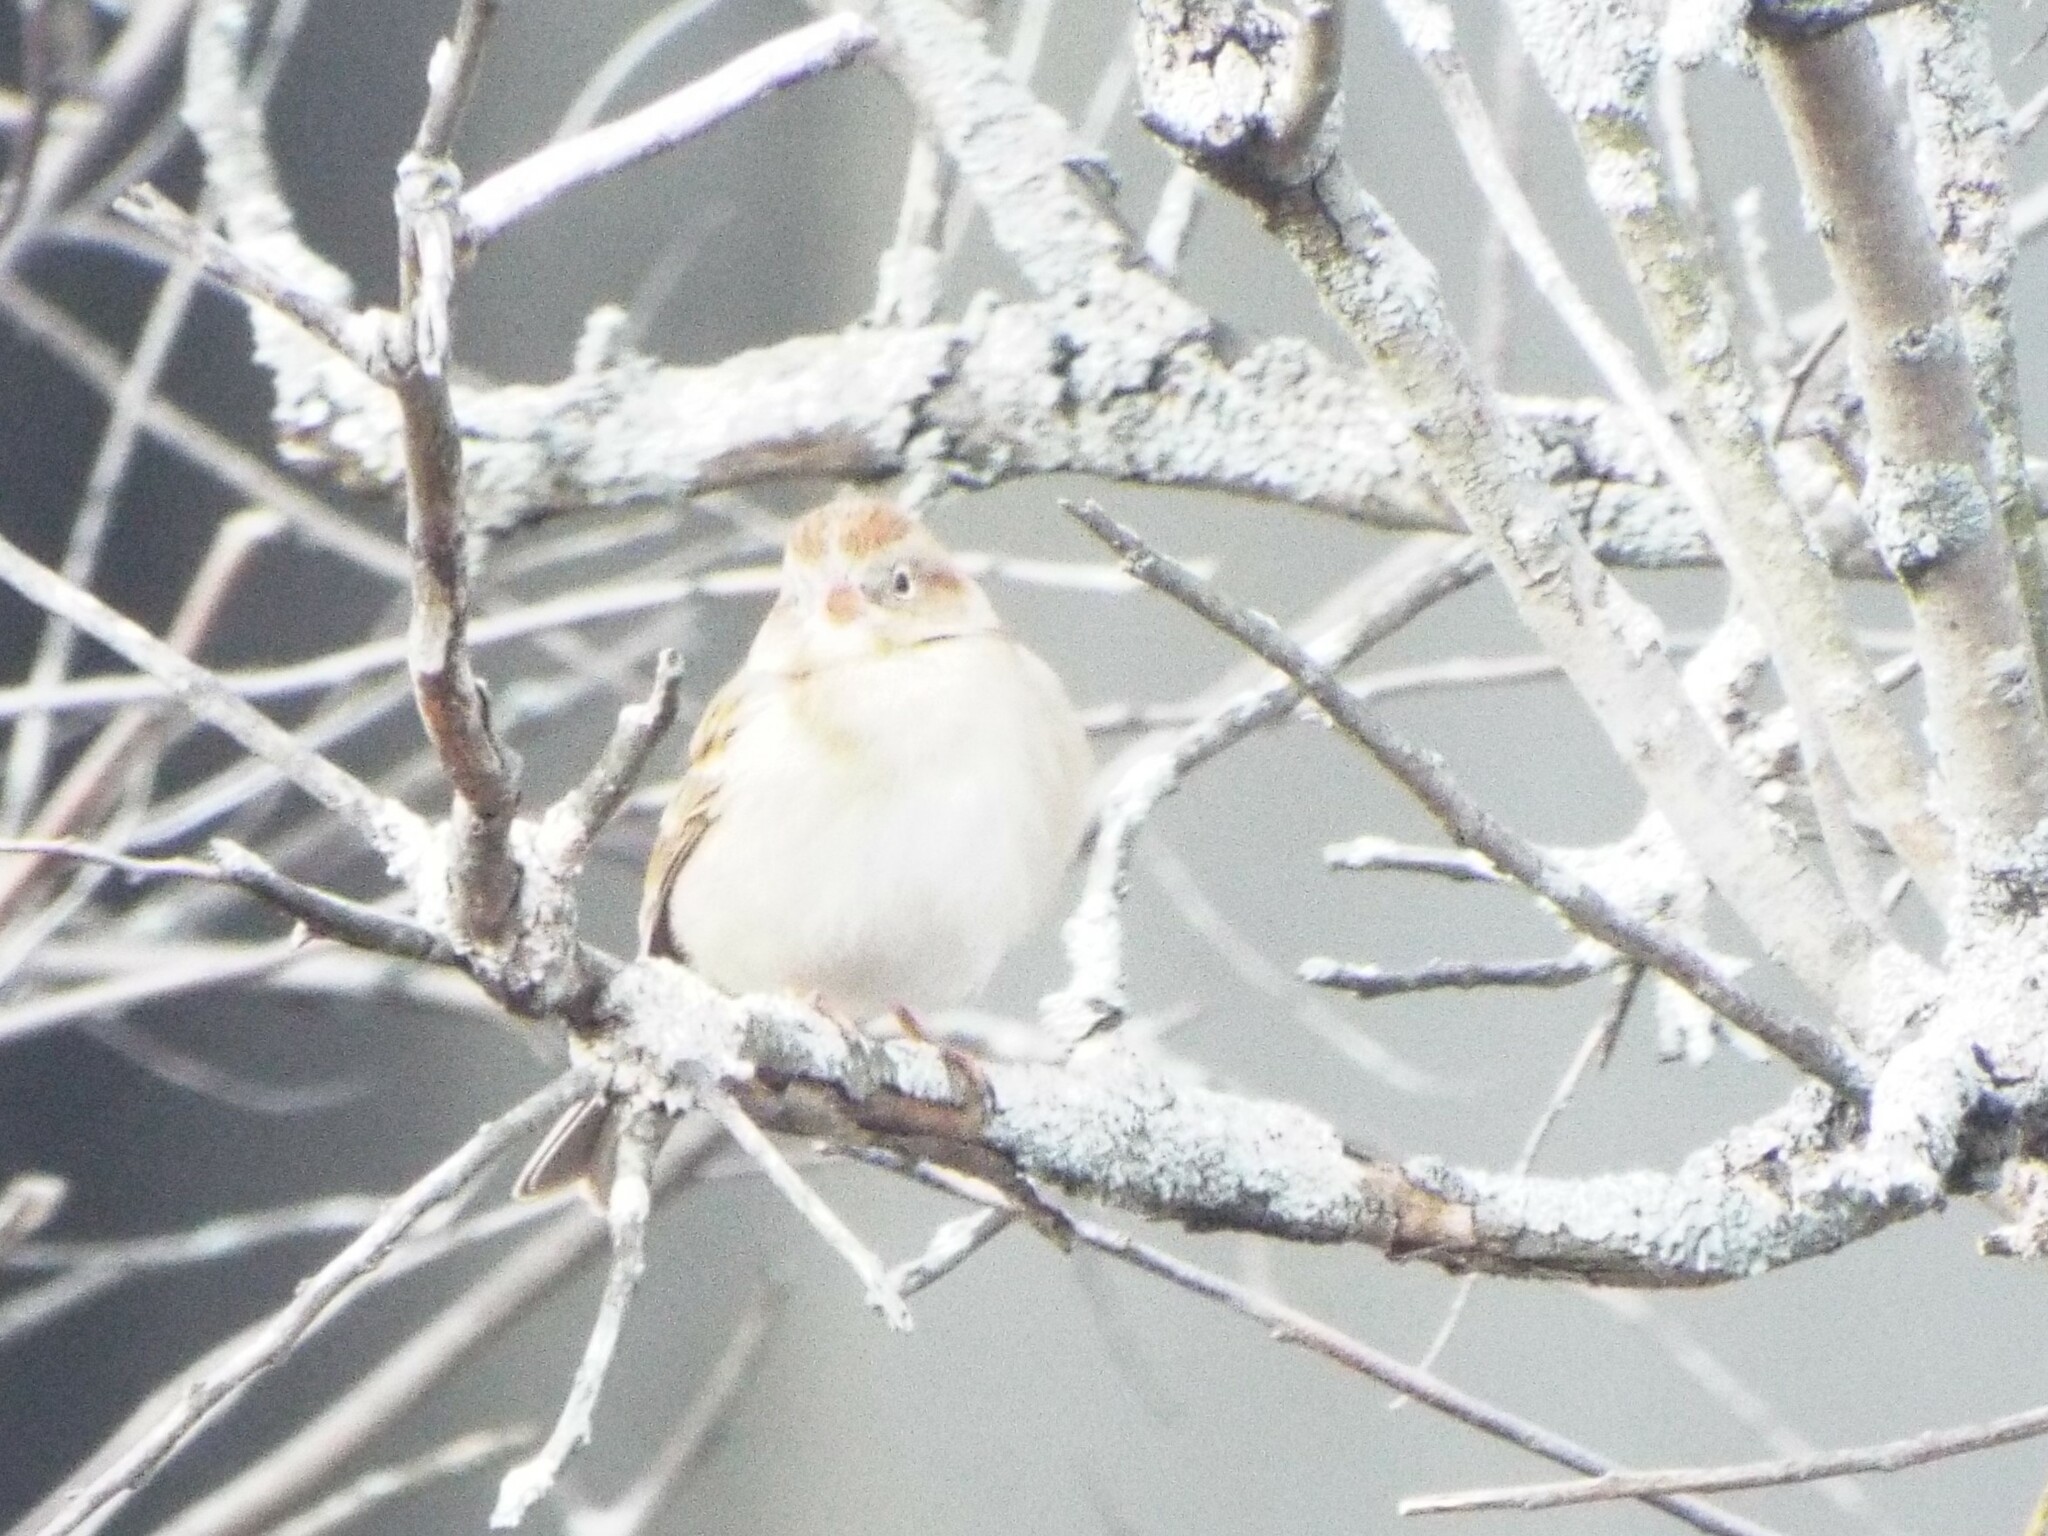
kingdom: Animalia
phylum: Chordata
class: Aves
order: Passeriformes
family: Passerellidae
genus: Spizella
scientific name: Spizella pusilla
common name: Field sparrow
